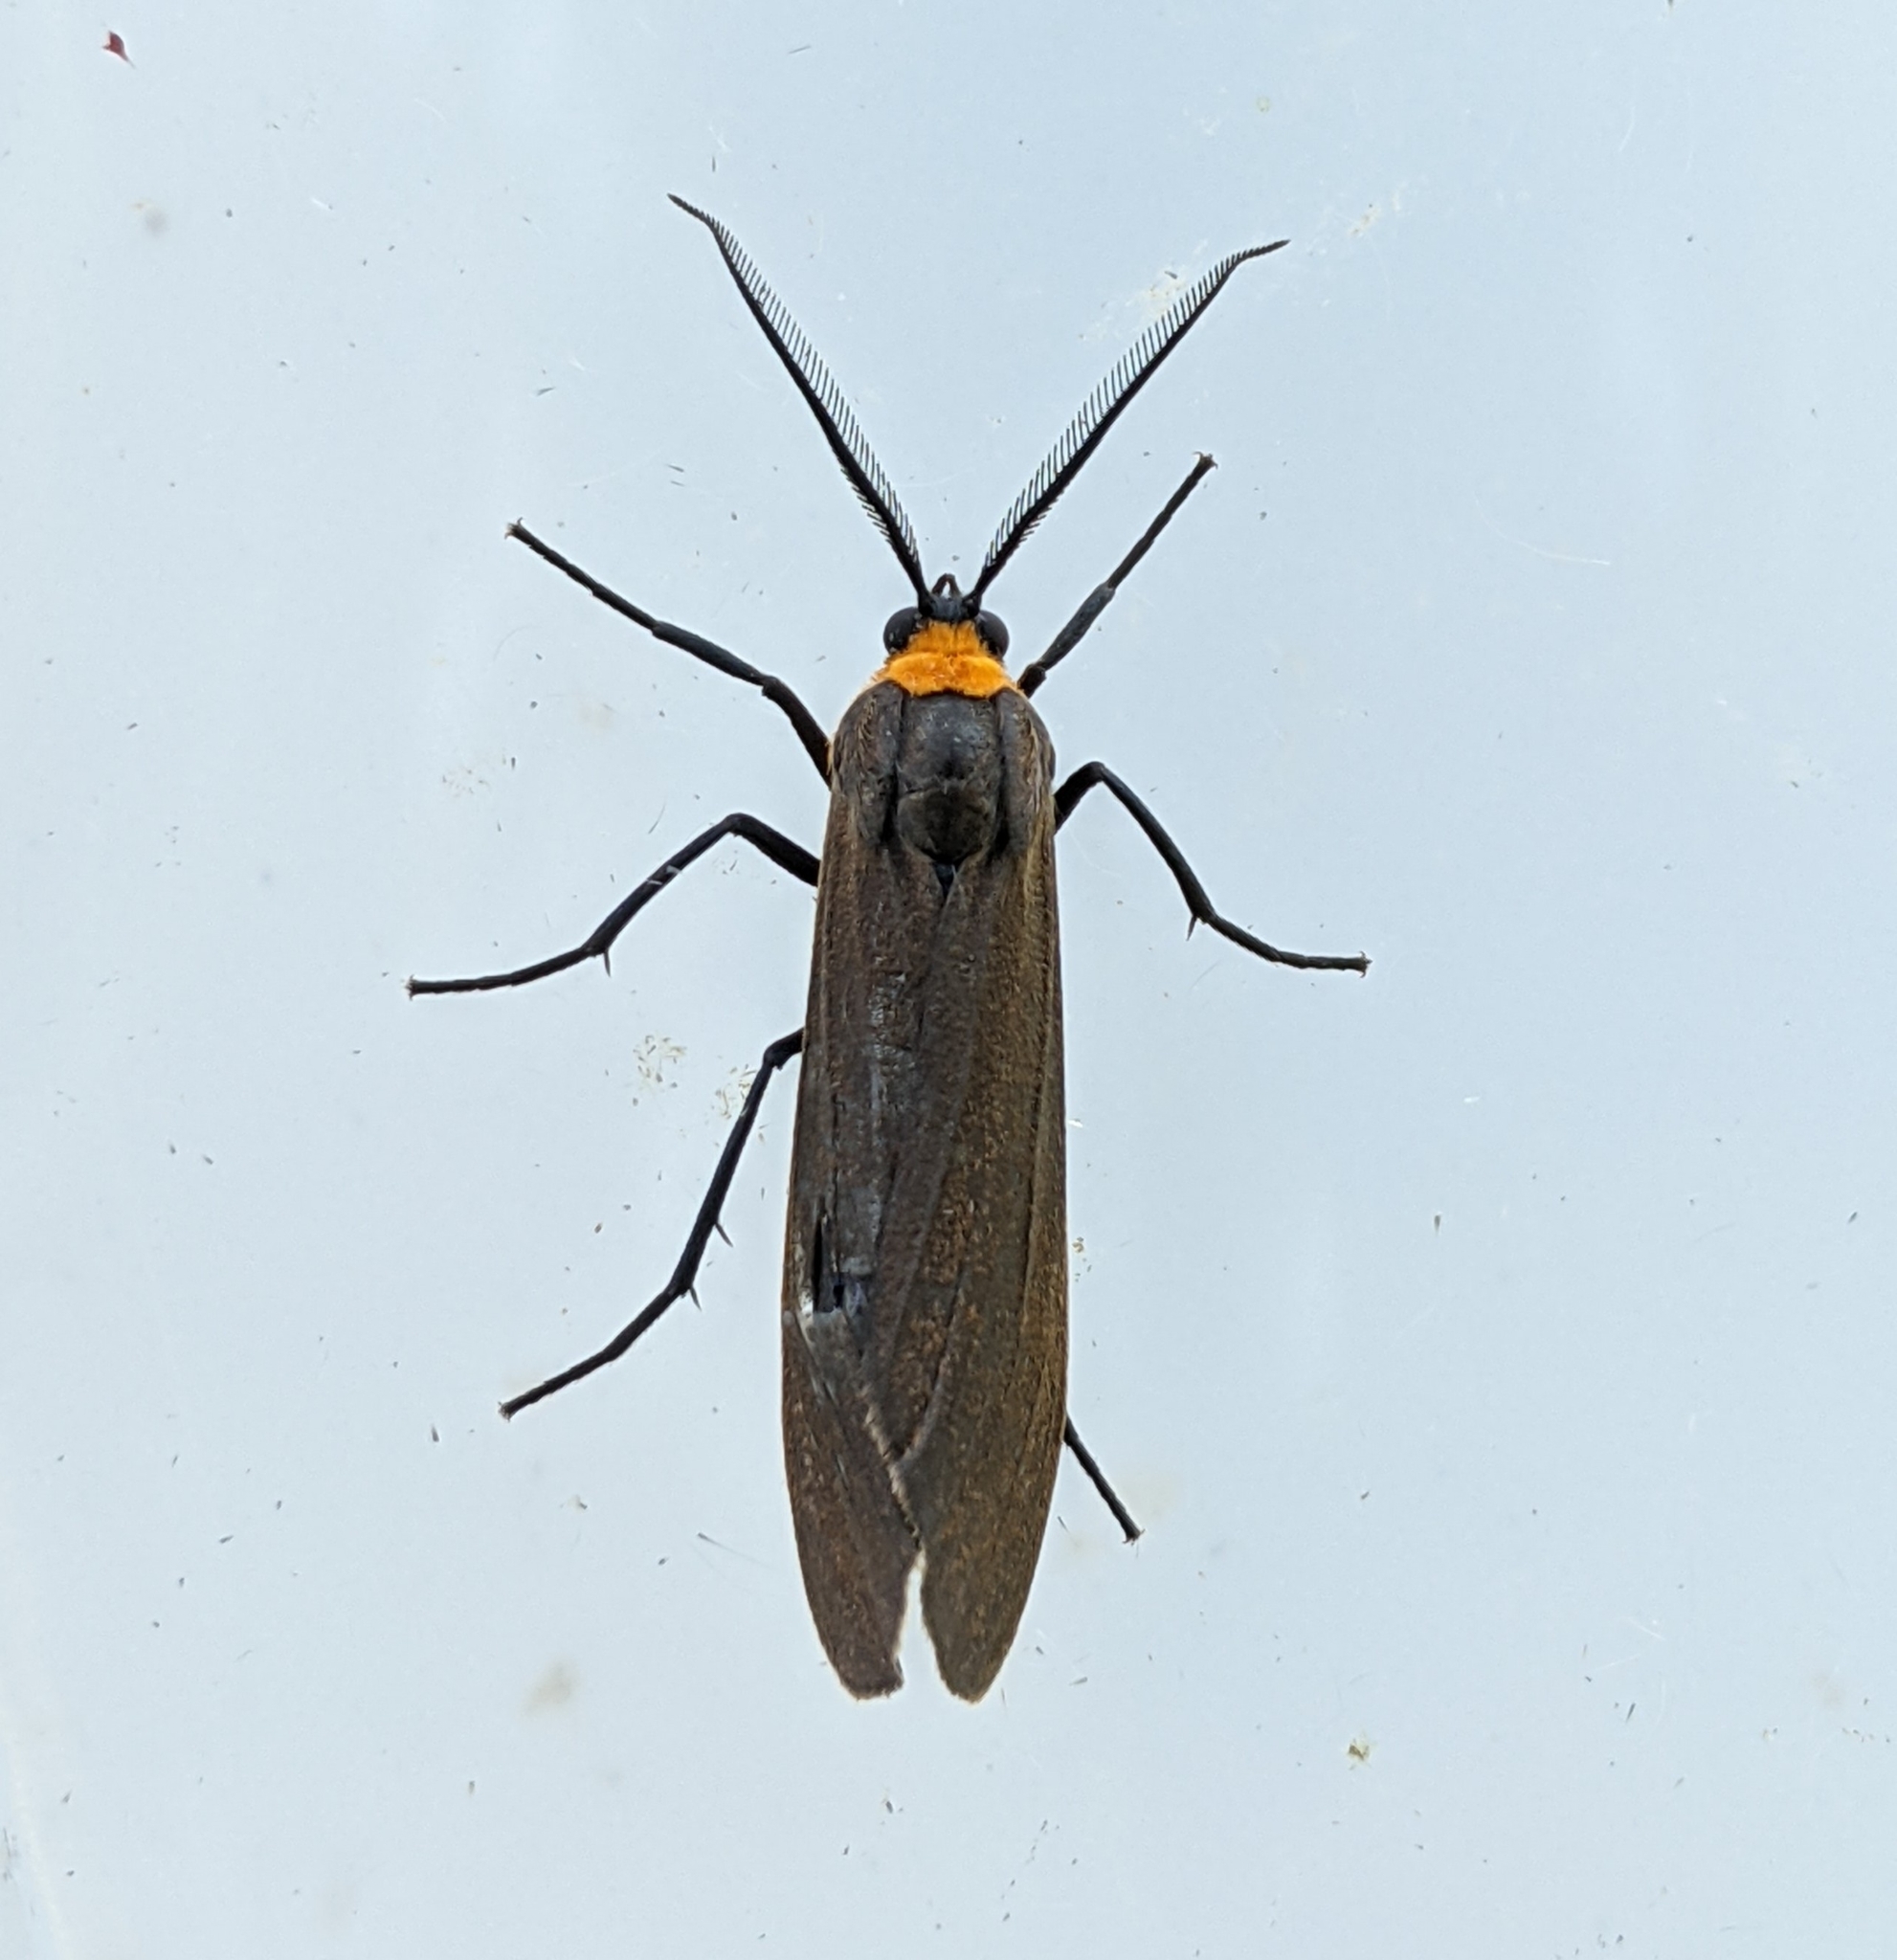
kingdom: Animalia
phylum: Arthropoda
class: Insecta
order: Lepidoptera
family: Erebidae
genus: Cisseps
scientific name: Cisseps fulvicollis
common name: Yellow-collared scape moth
